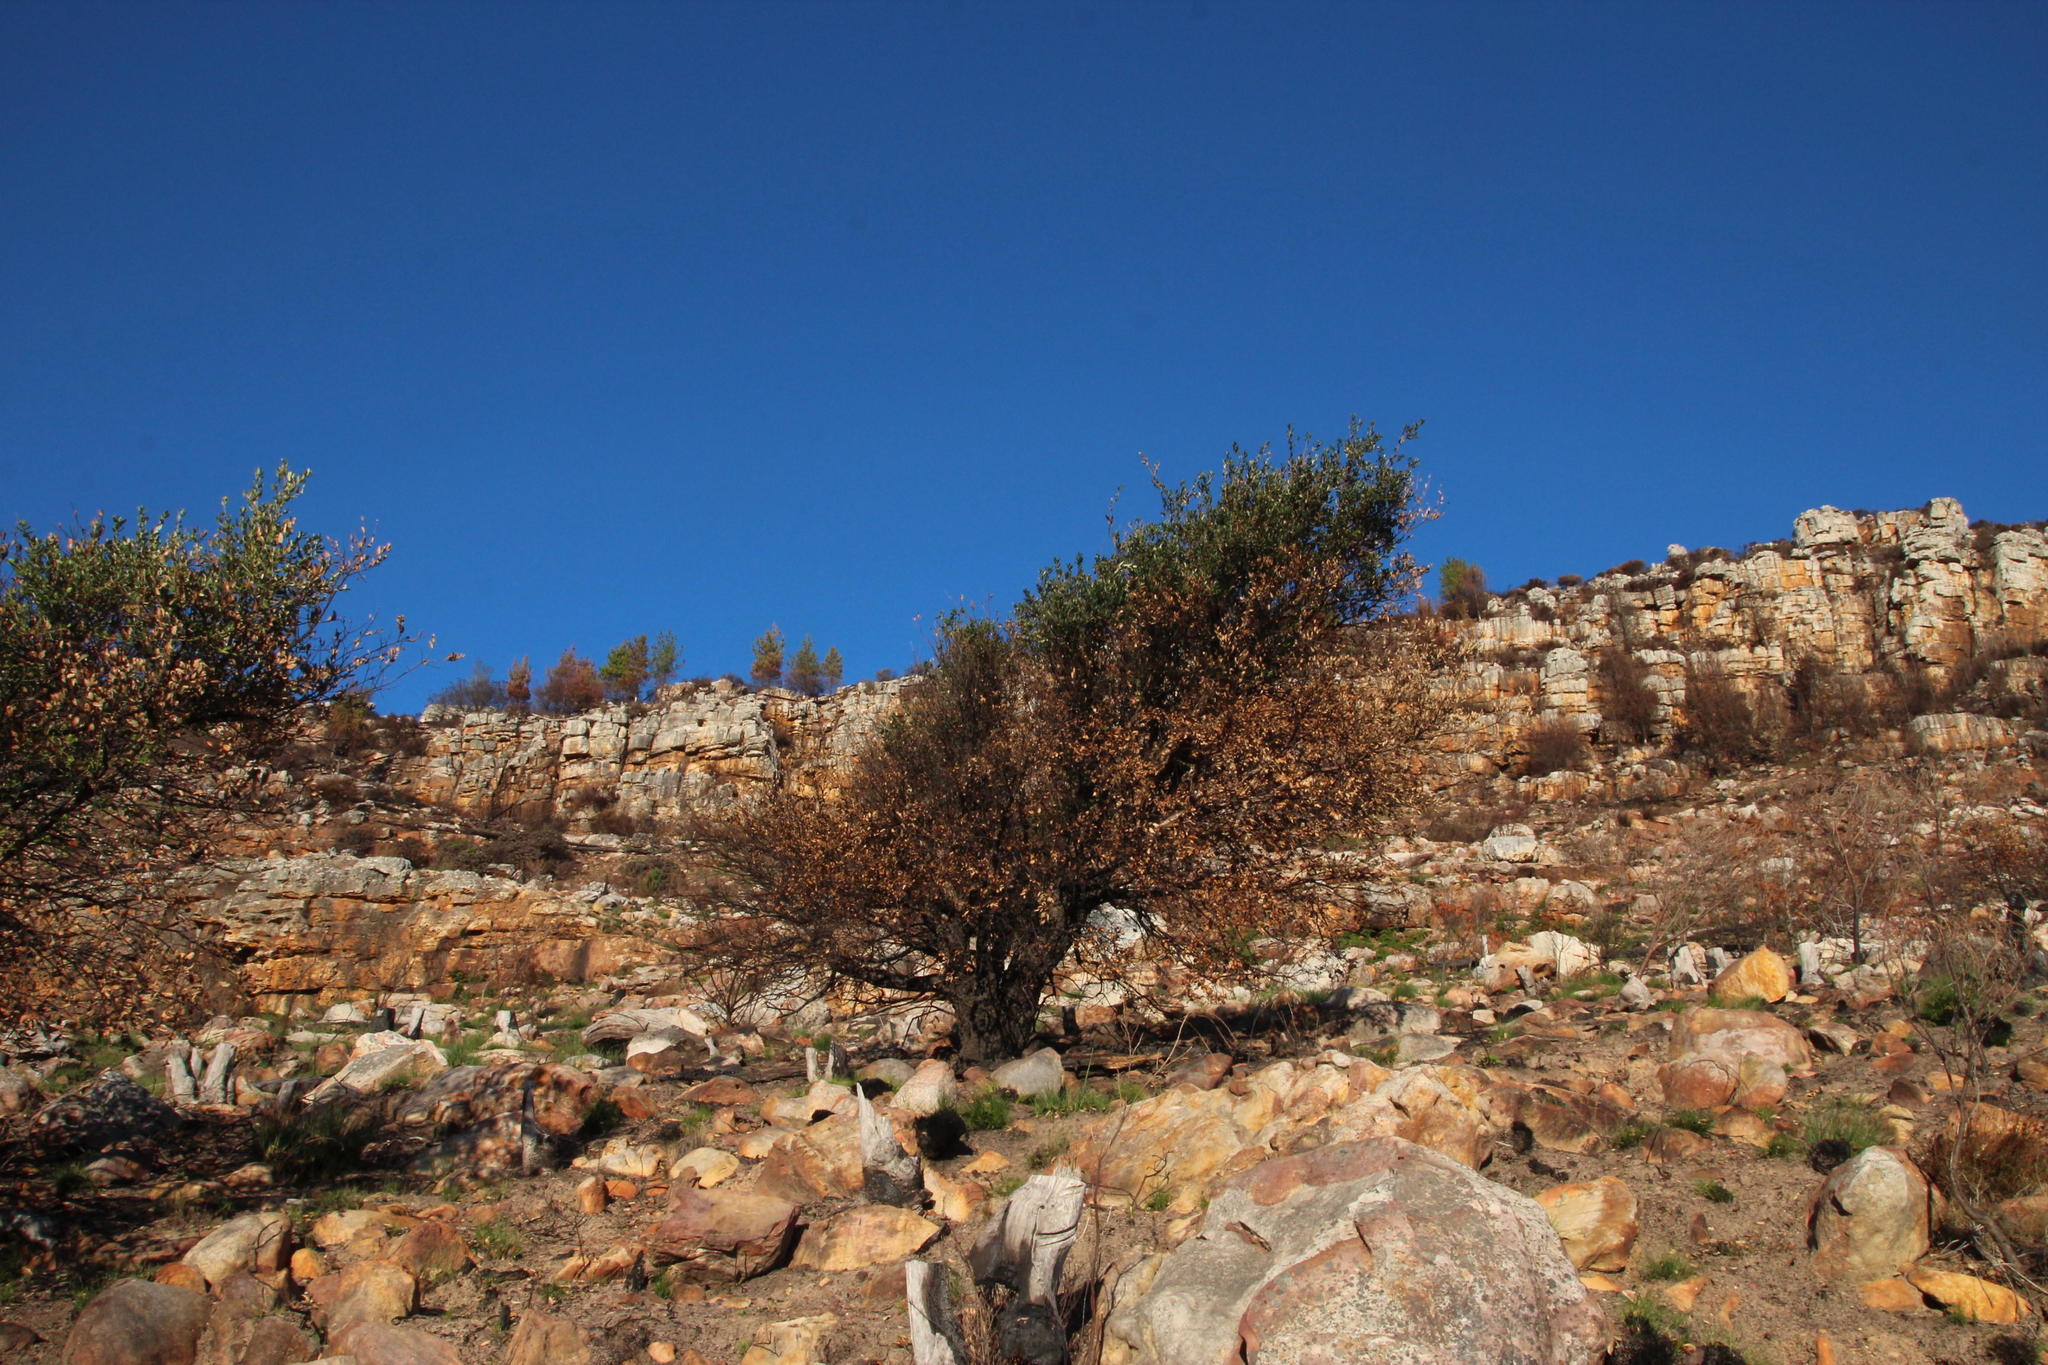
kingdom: Plantae
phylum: Tracheophyta
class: Magnoliopsida
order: Fagales
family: Fagaceae
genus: Quercus
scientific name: Quercus suber
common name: Cork oak
